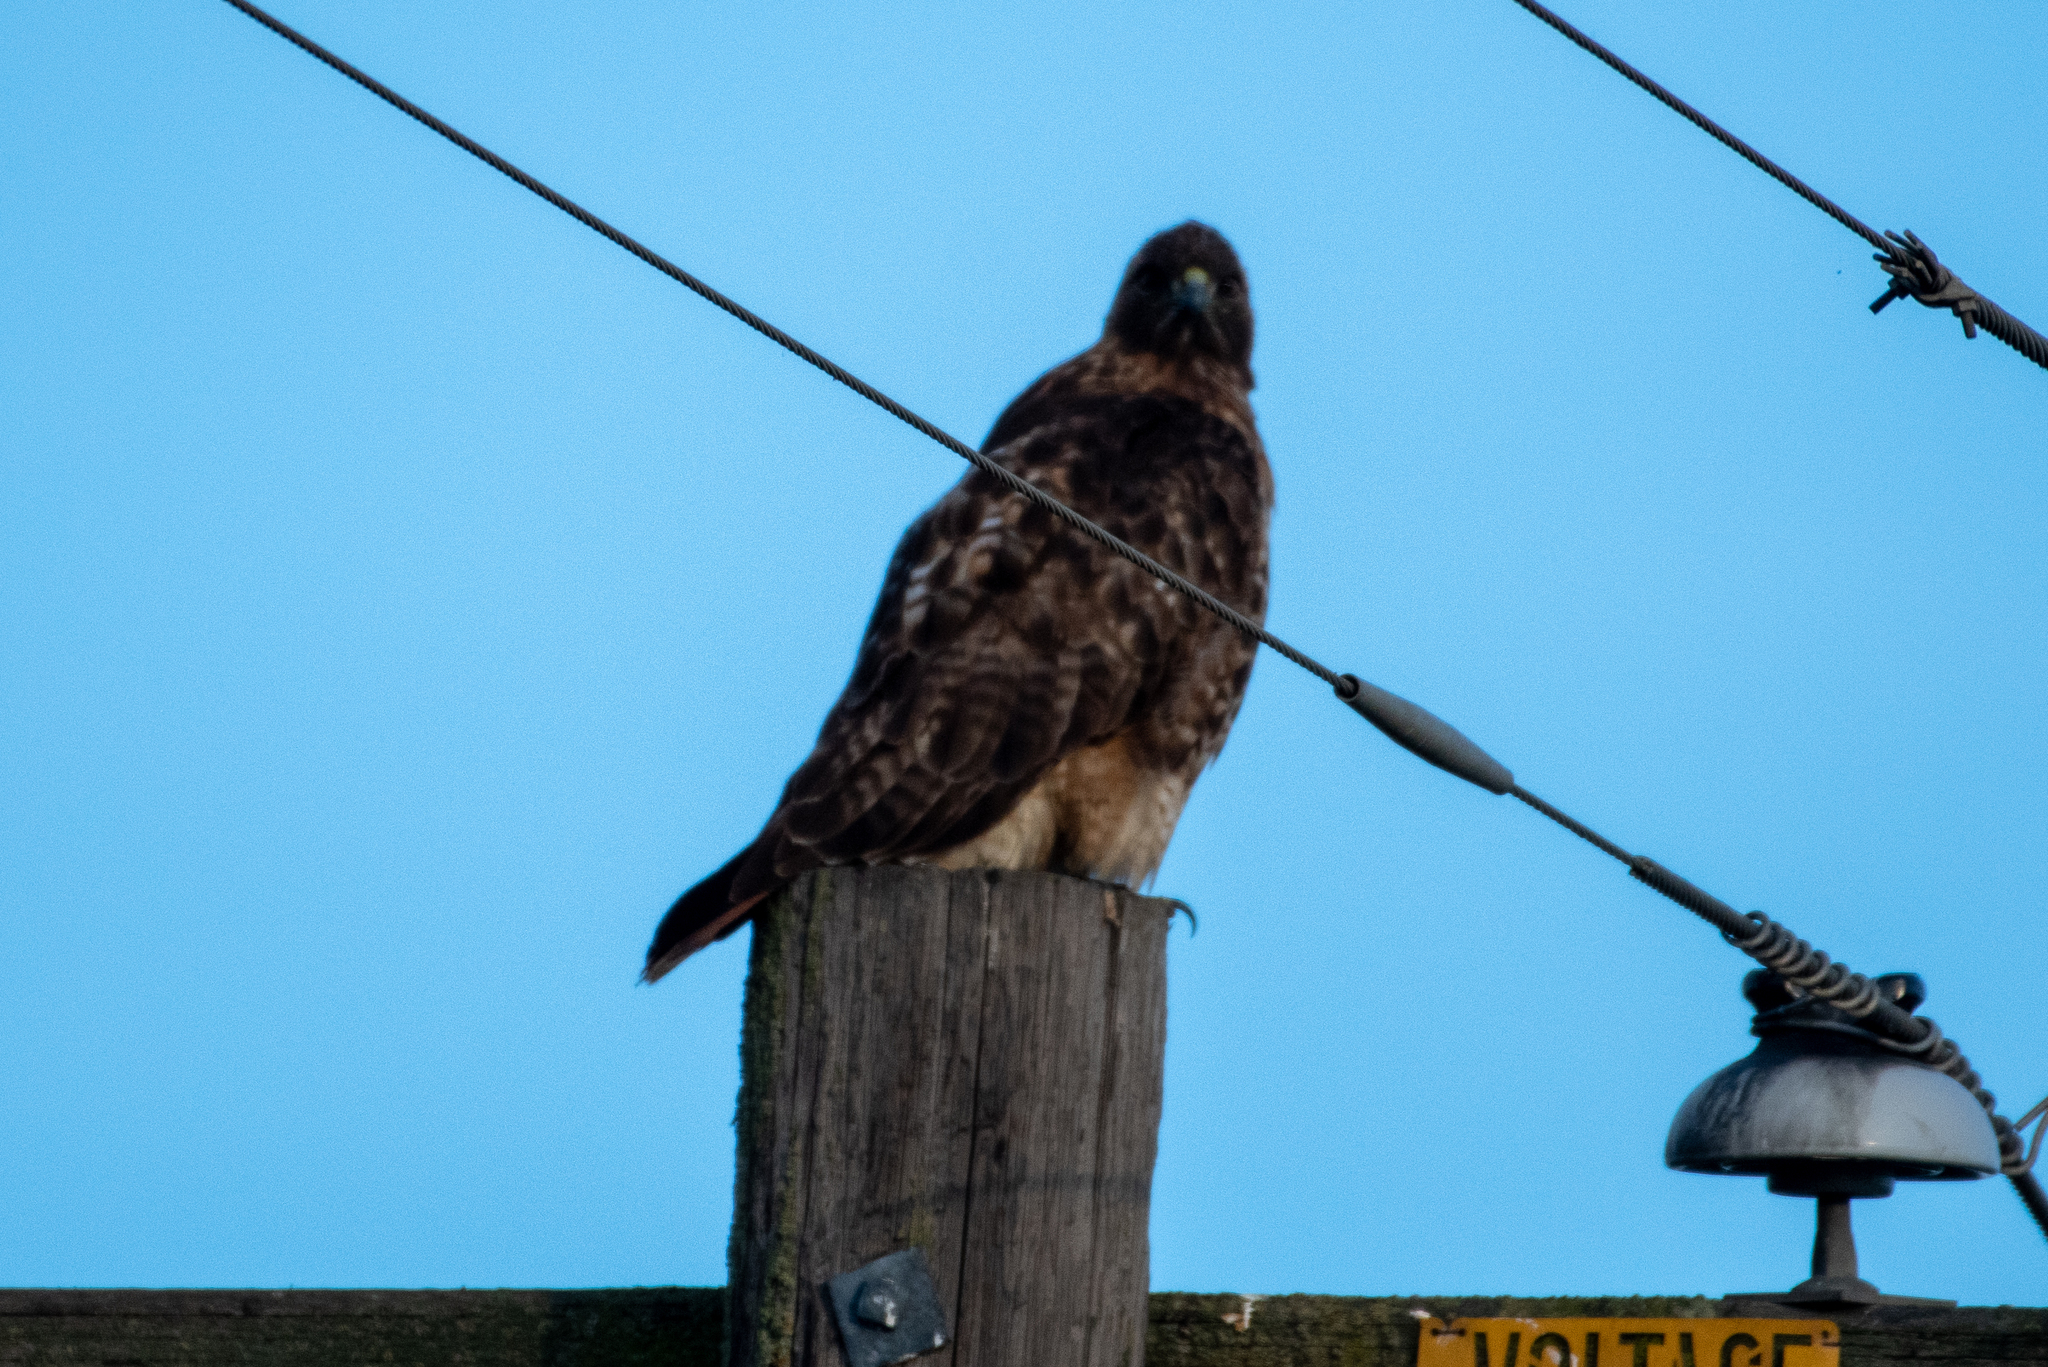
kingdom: Animalia
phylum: Chordata
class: Aves
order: Accipitriformes
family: Accipitridae
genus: Buteo
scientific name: Buteo jamaicensis
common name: Red-tailed hawk
